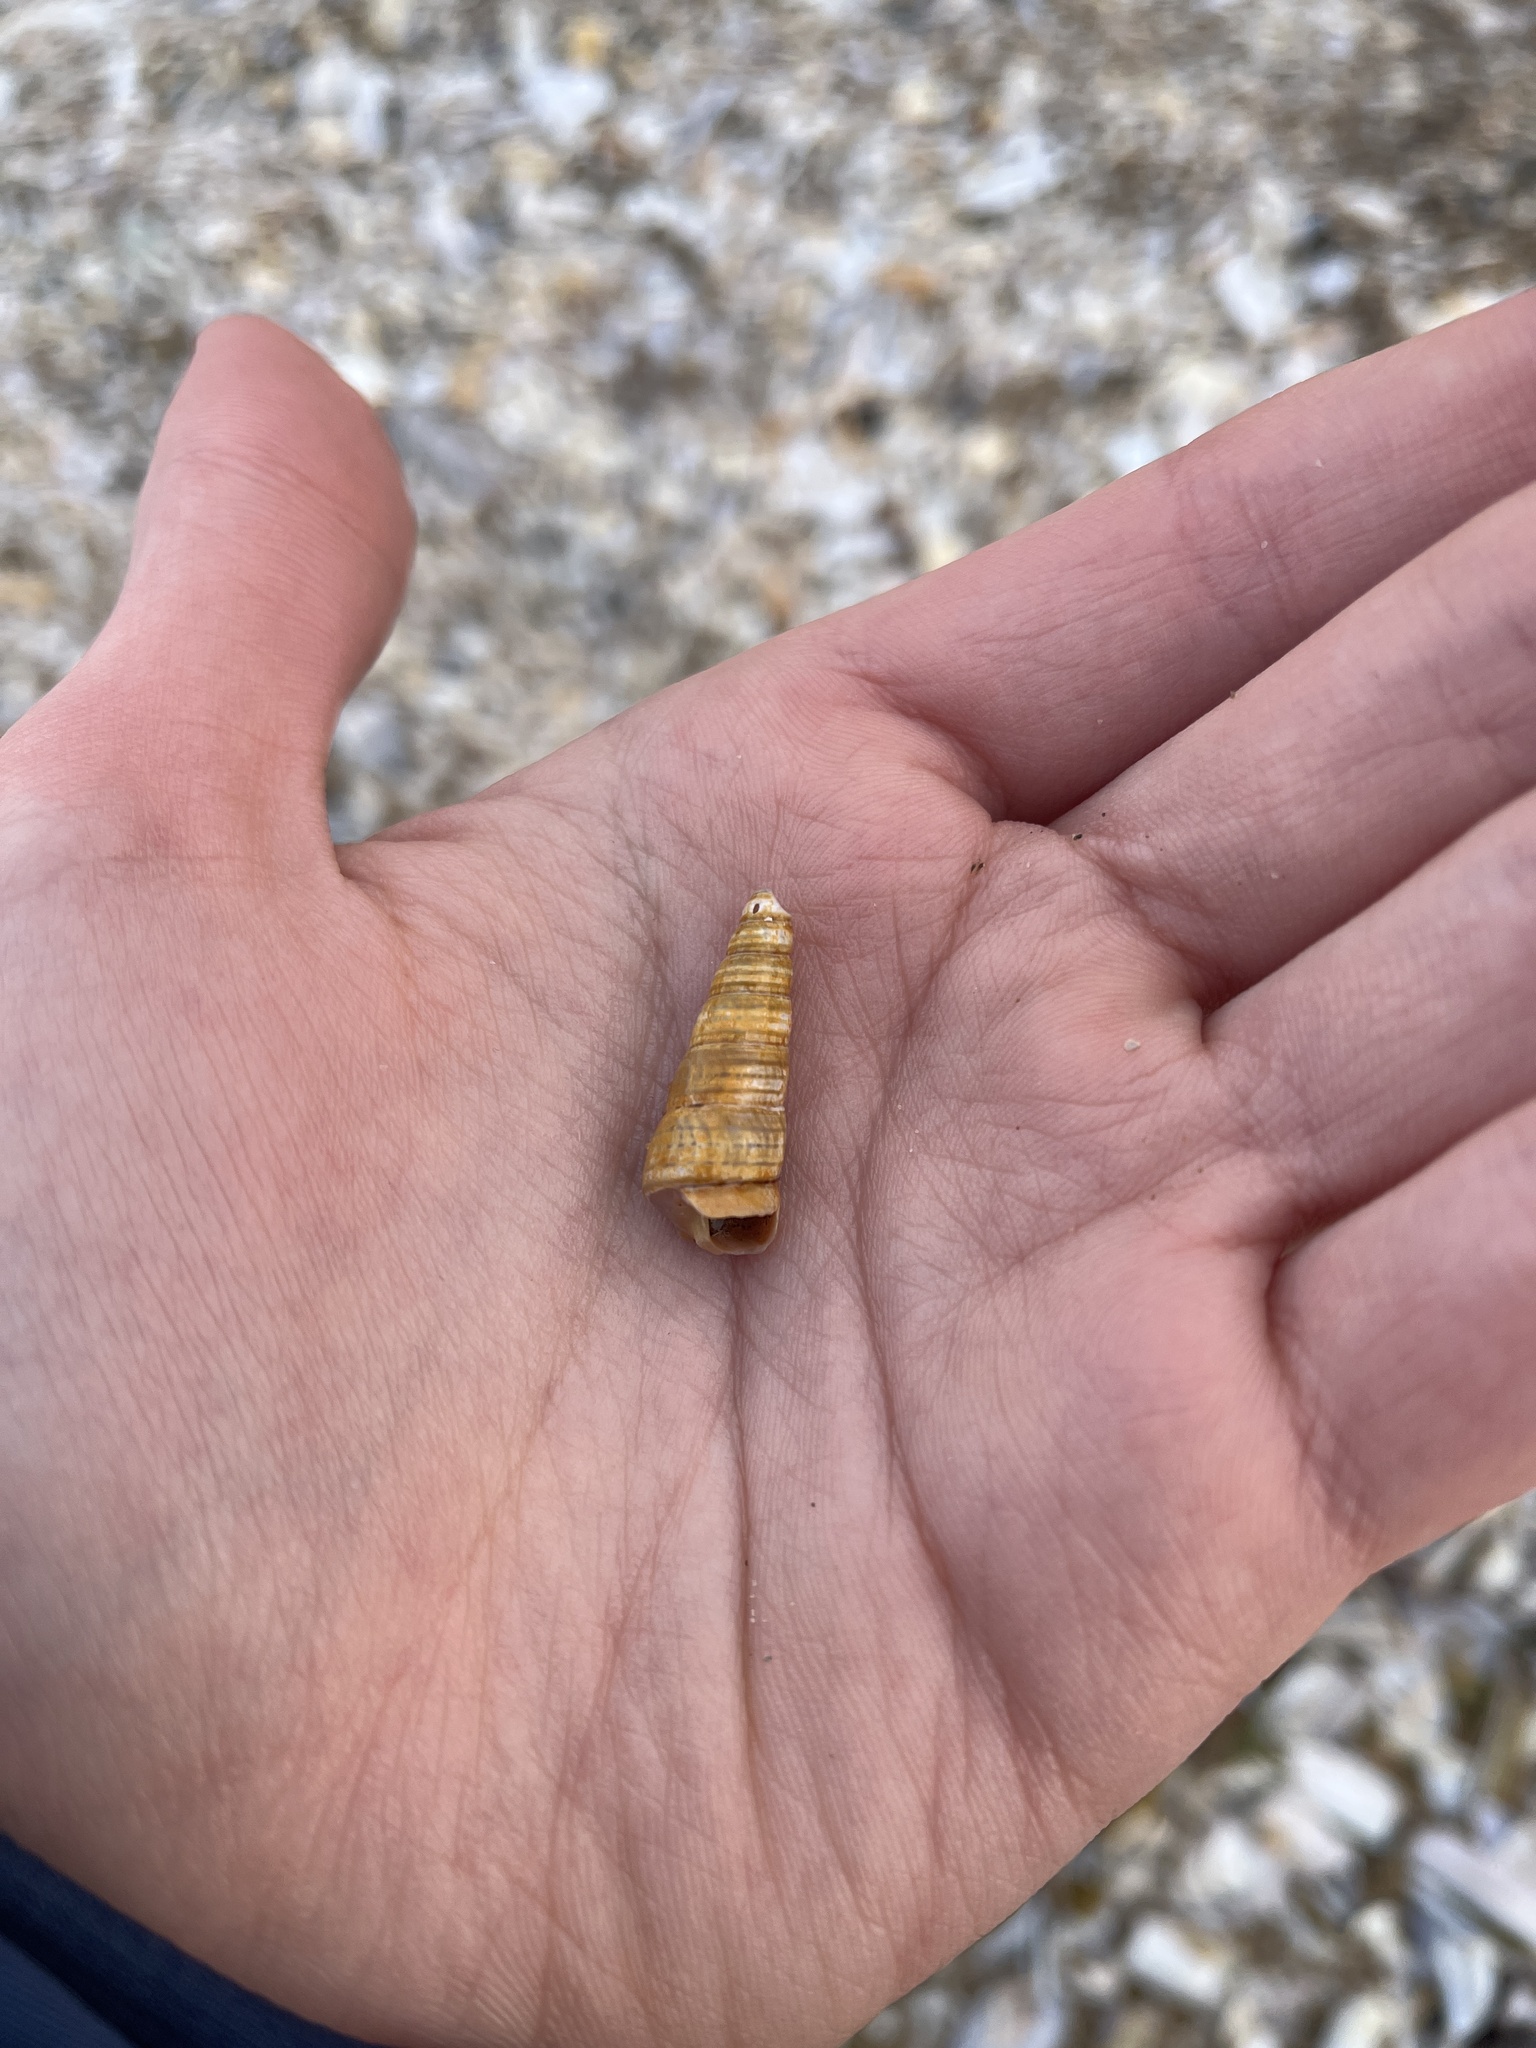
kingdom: Animalia
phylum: Mollusca
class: Gastropoda
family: Turritellidae
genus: Turritellinella
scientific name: Turritellinella tricarinata
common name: Auger shell
